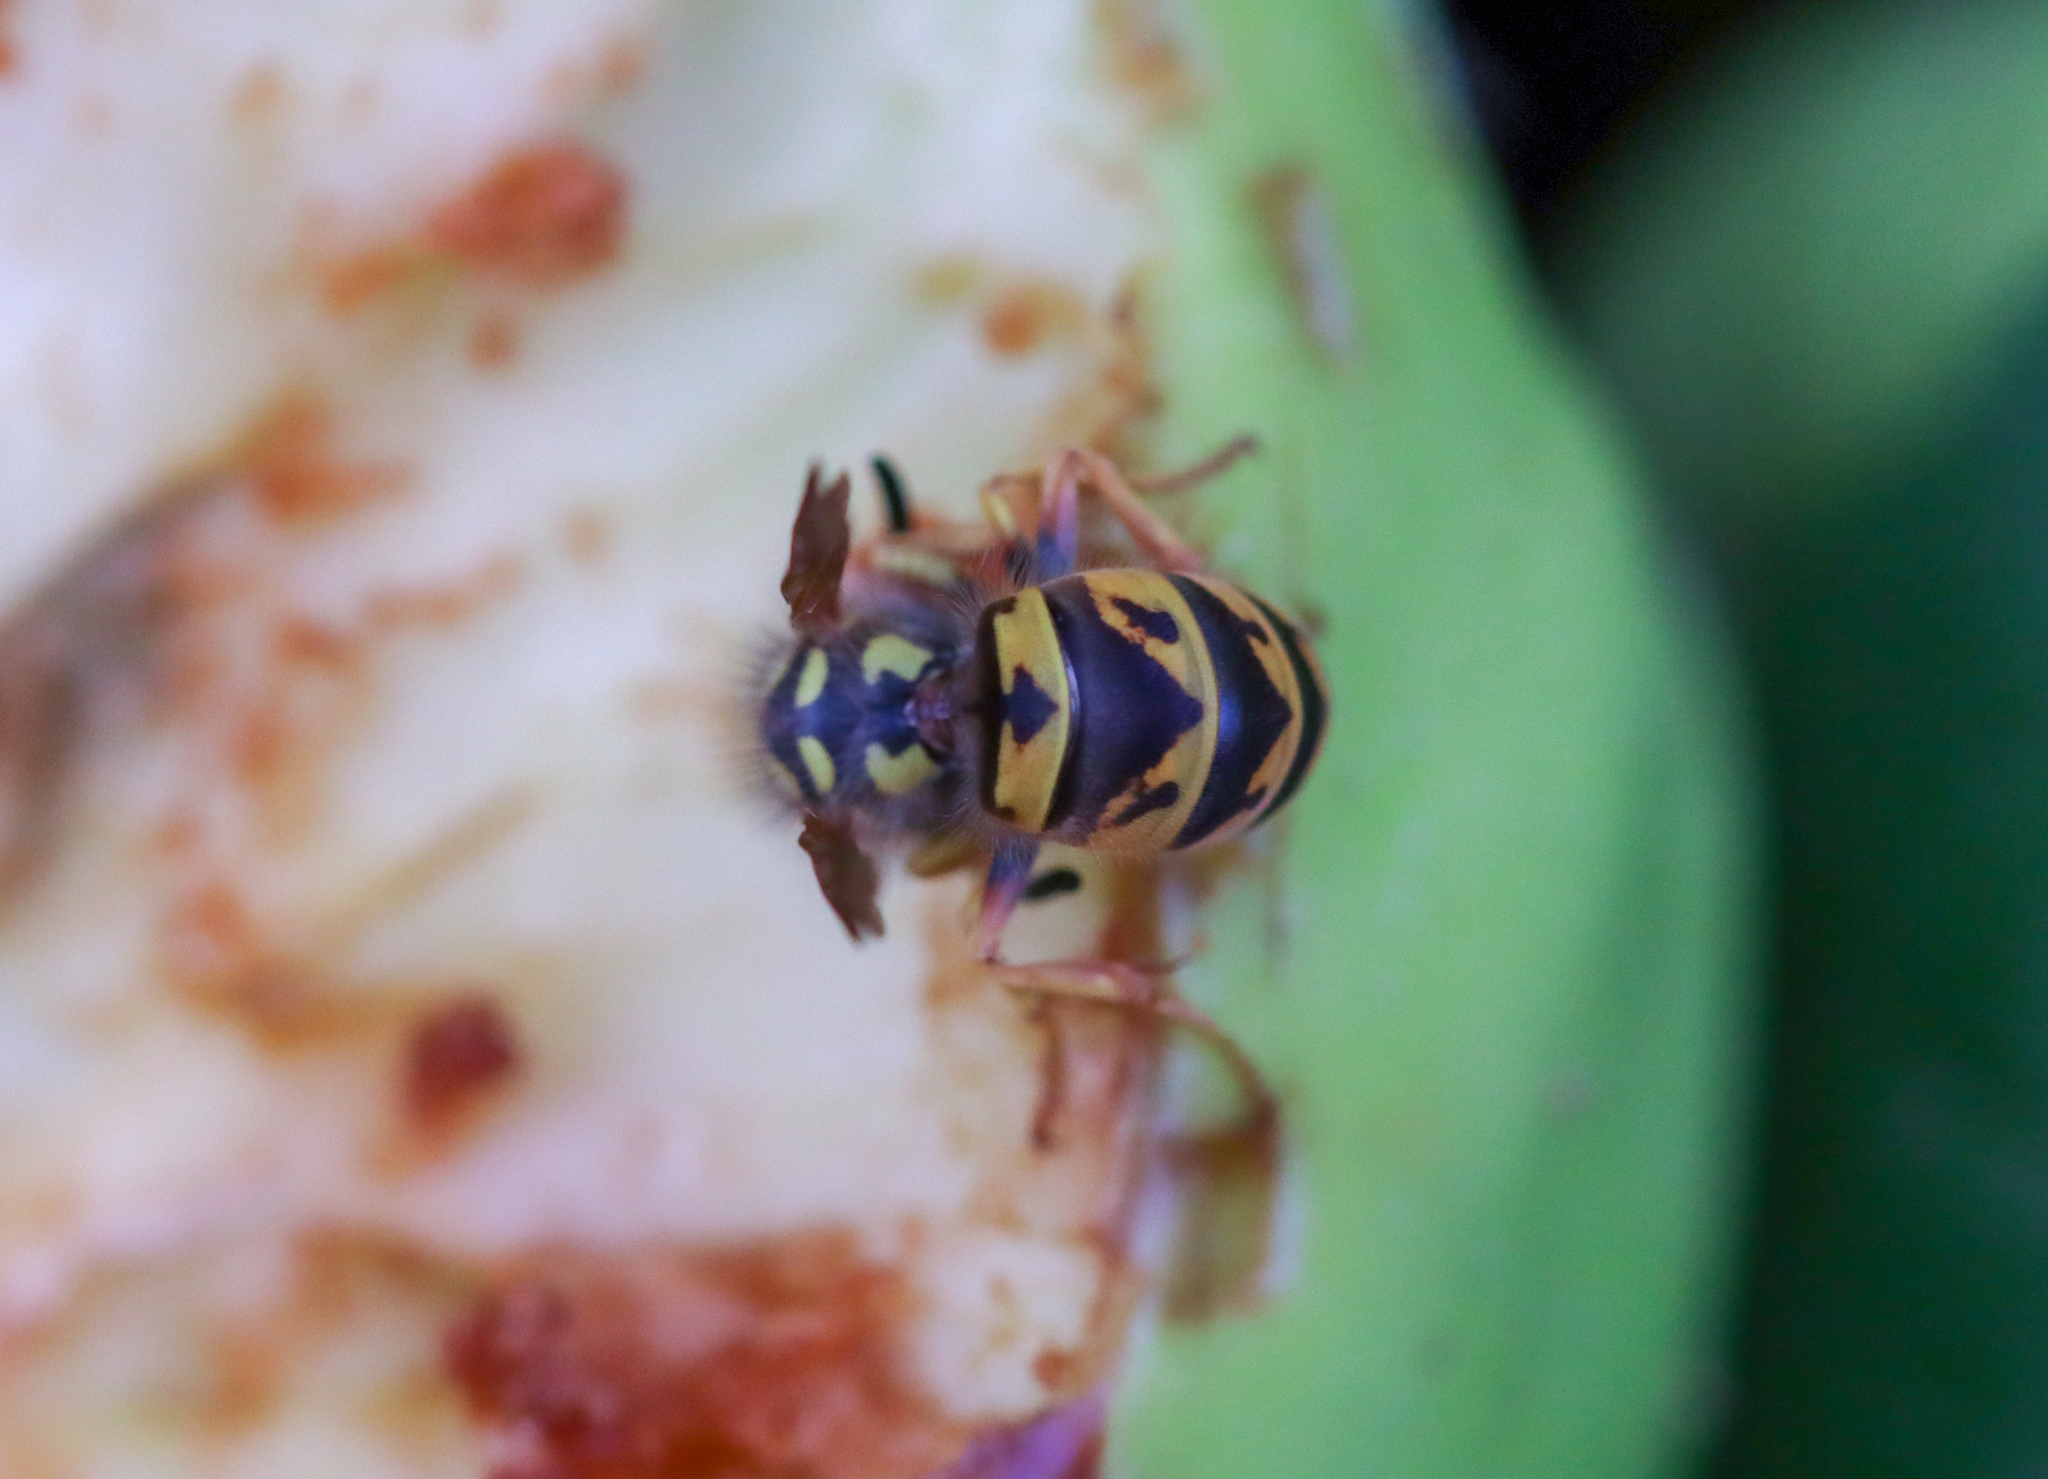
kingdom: Animalia
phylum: Arthropoda
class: Insecta
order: Hymenoptera
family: Vespidae
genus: Vespula
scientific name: Vespula germanica
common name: German wasp
